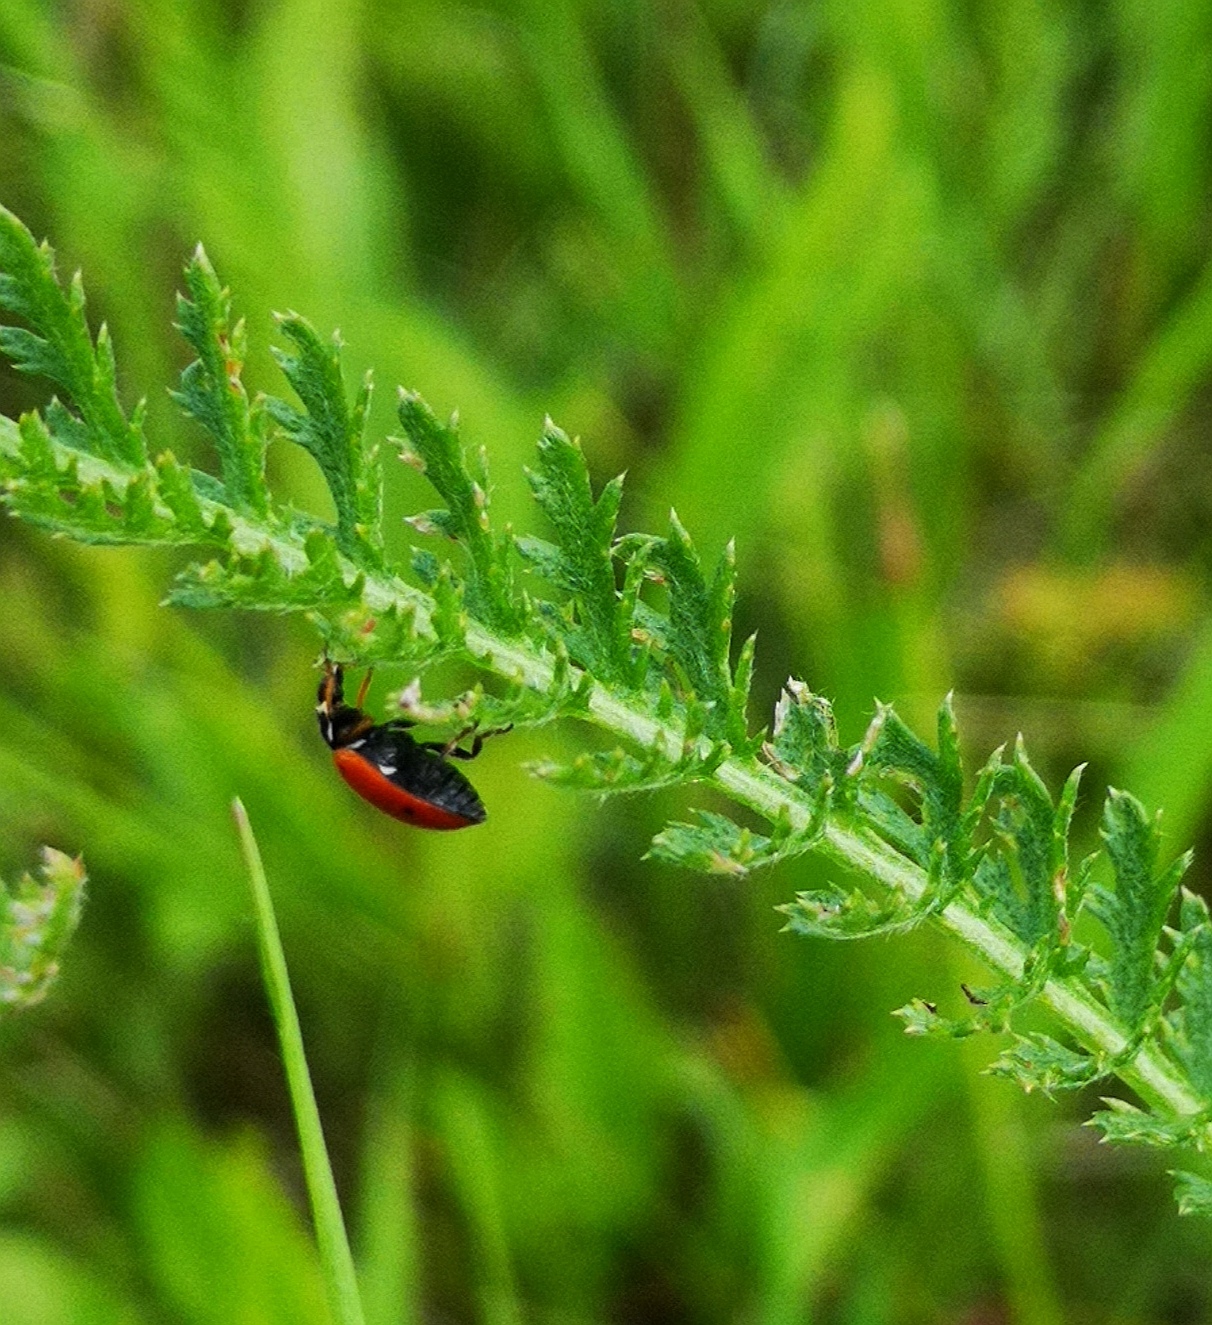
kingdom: Animalia
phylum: Arthropoda
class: Insecta
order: Coleoptera
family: Coccinellidae
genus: Hippodamia
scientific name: Hippodamia variegata
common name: Ladybird beetle
